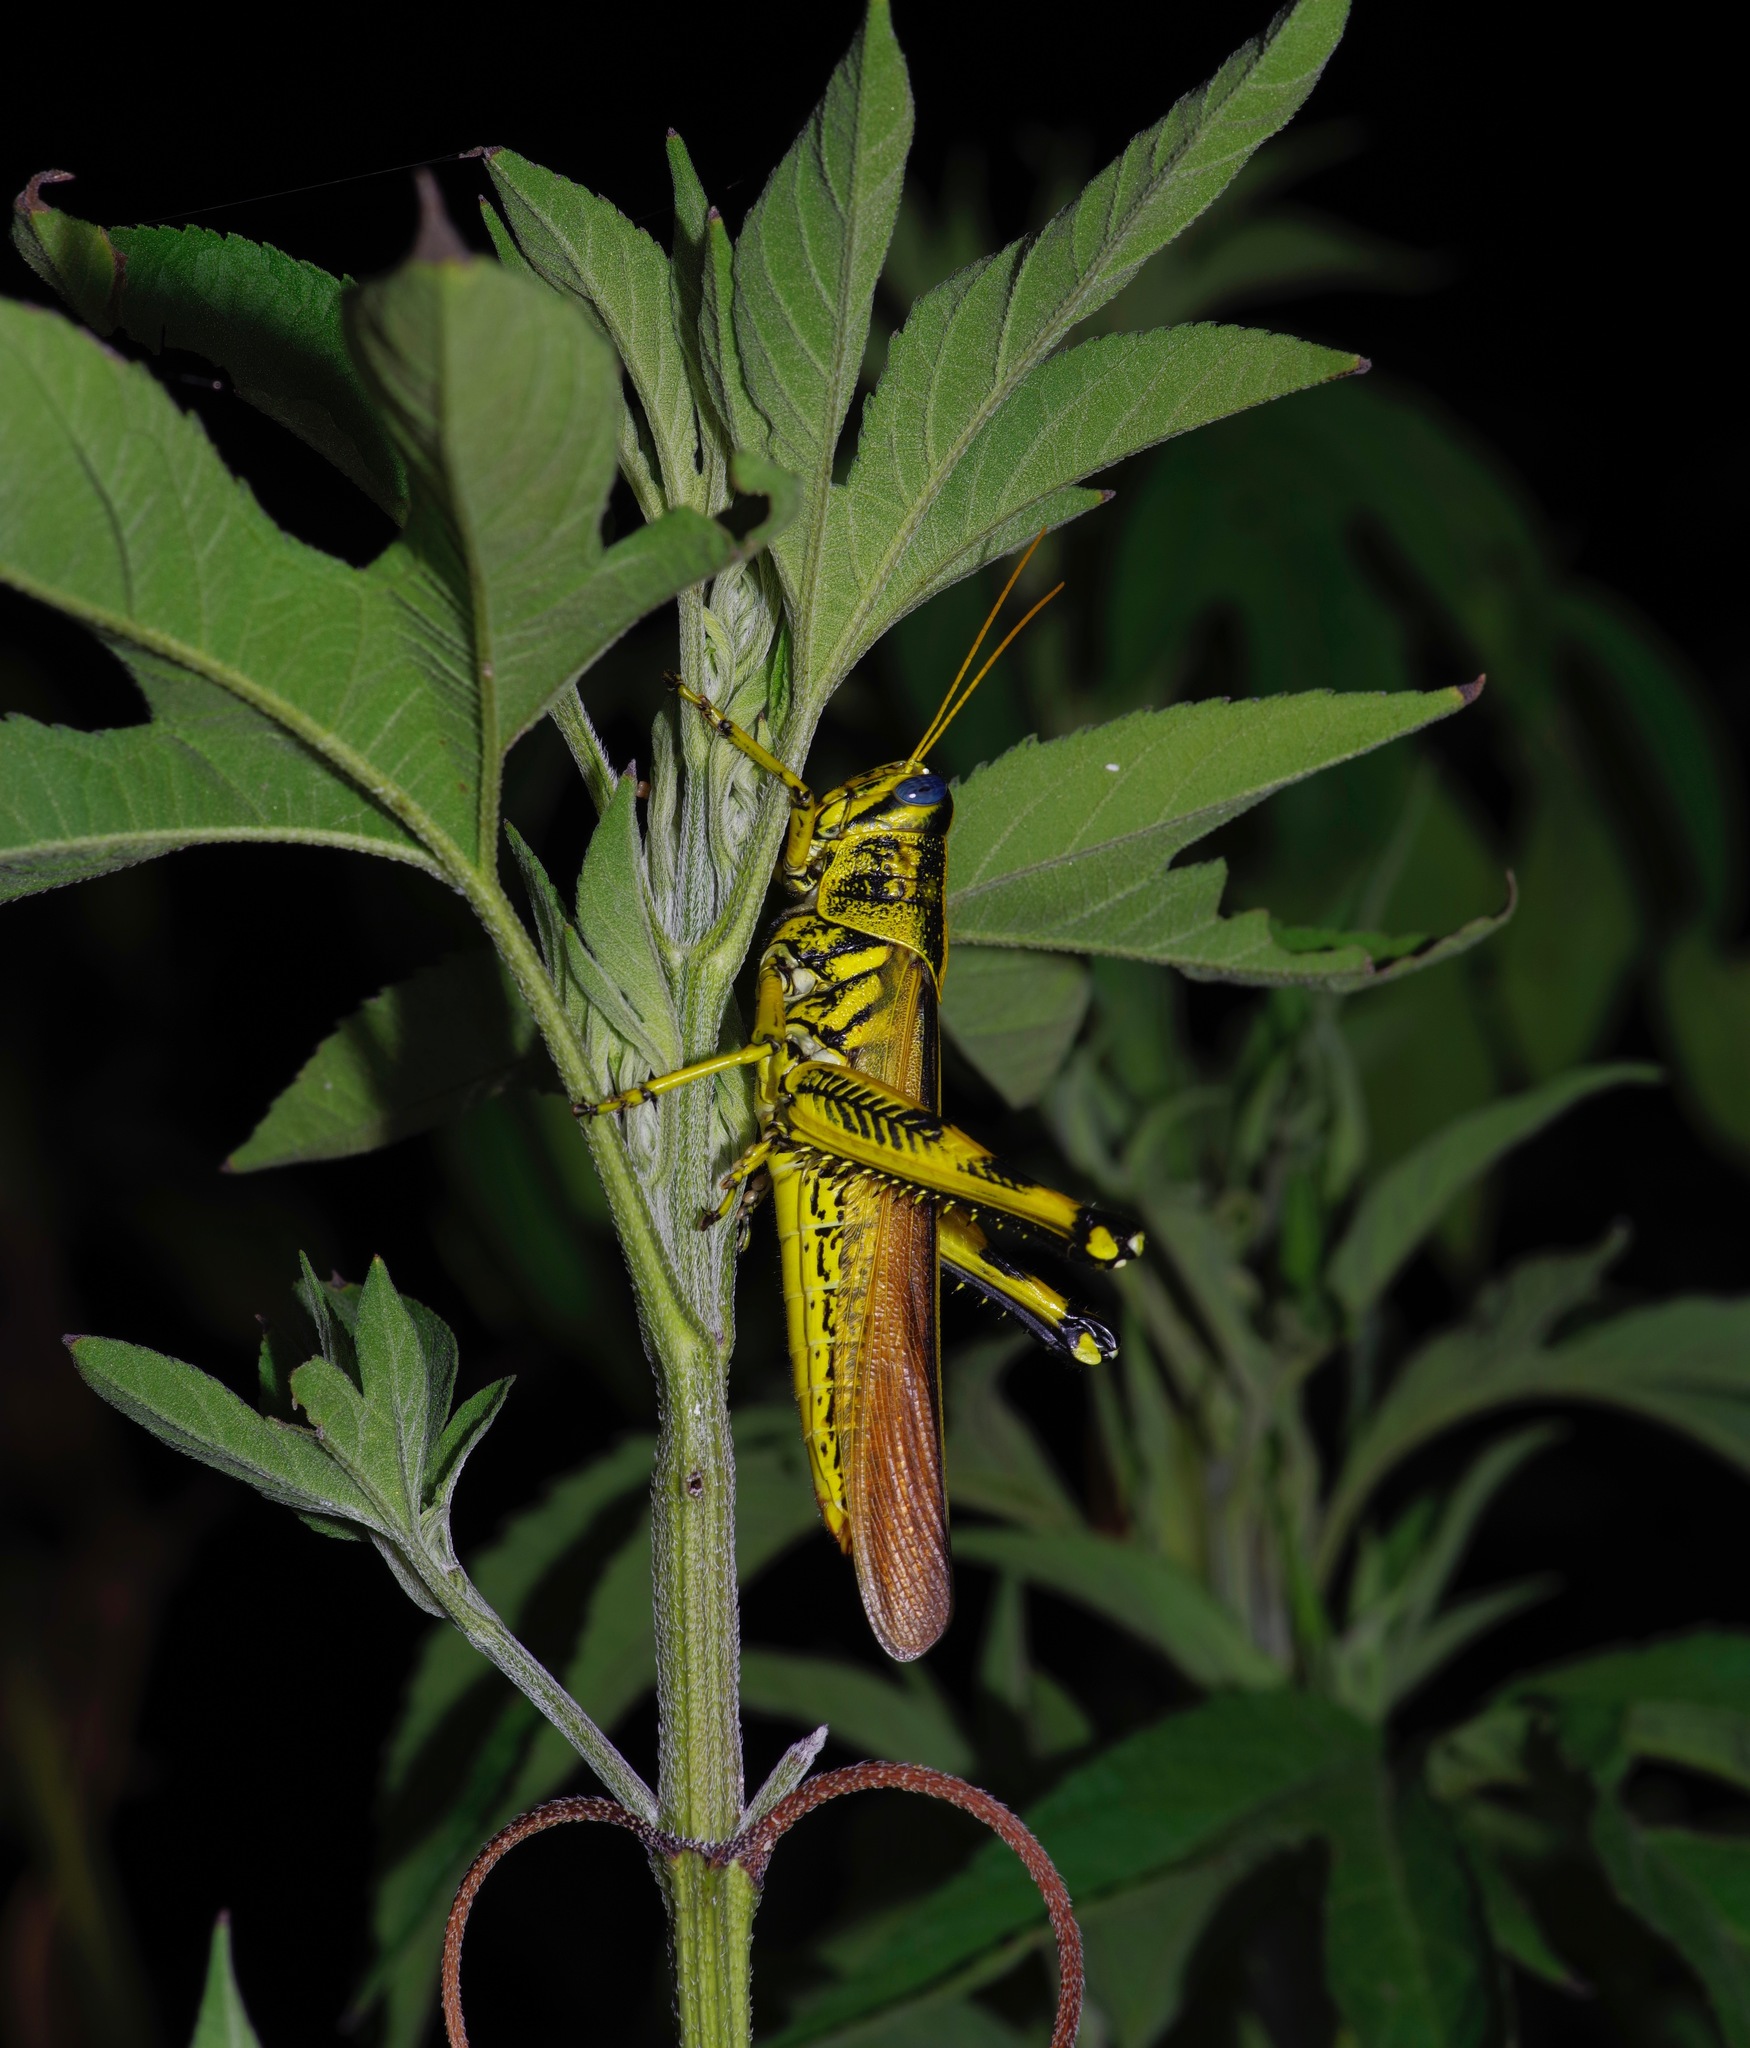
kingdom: Animalia
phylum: Arthropoda
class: Insecta
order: Orthoptera
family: Acrididae
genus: Schistocerca
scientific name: Schistocerca lineata
